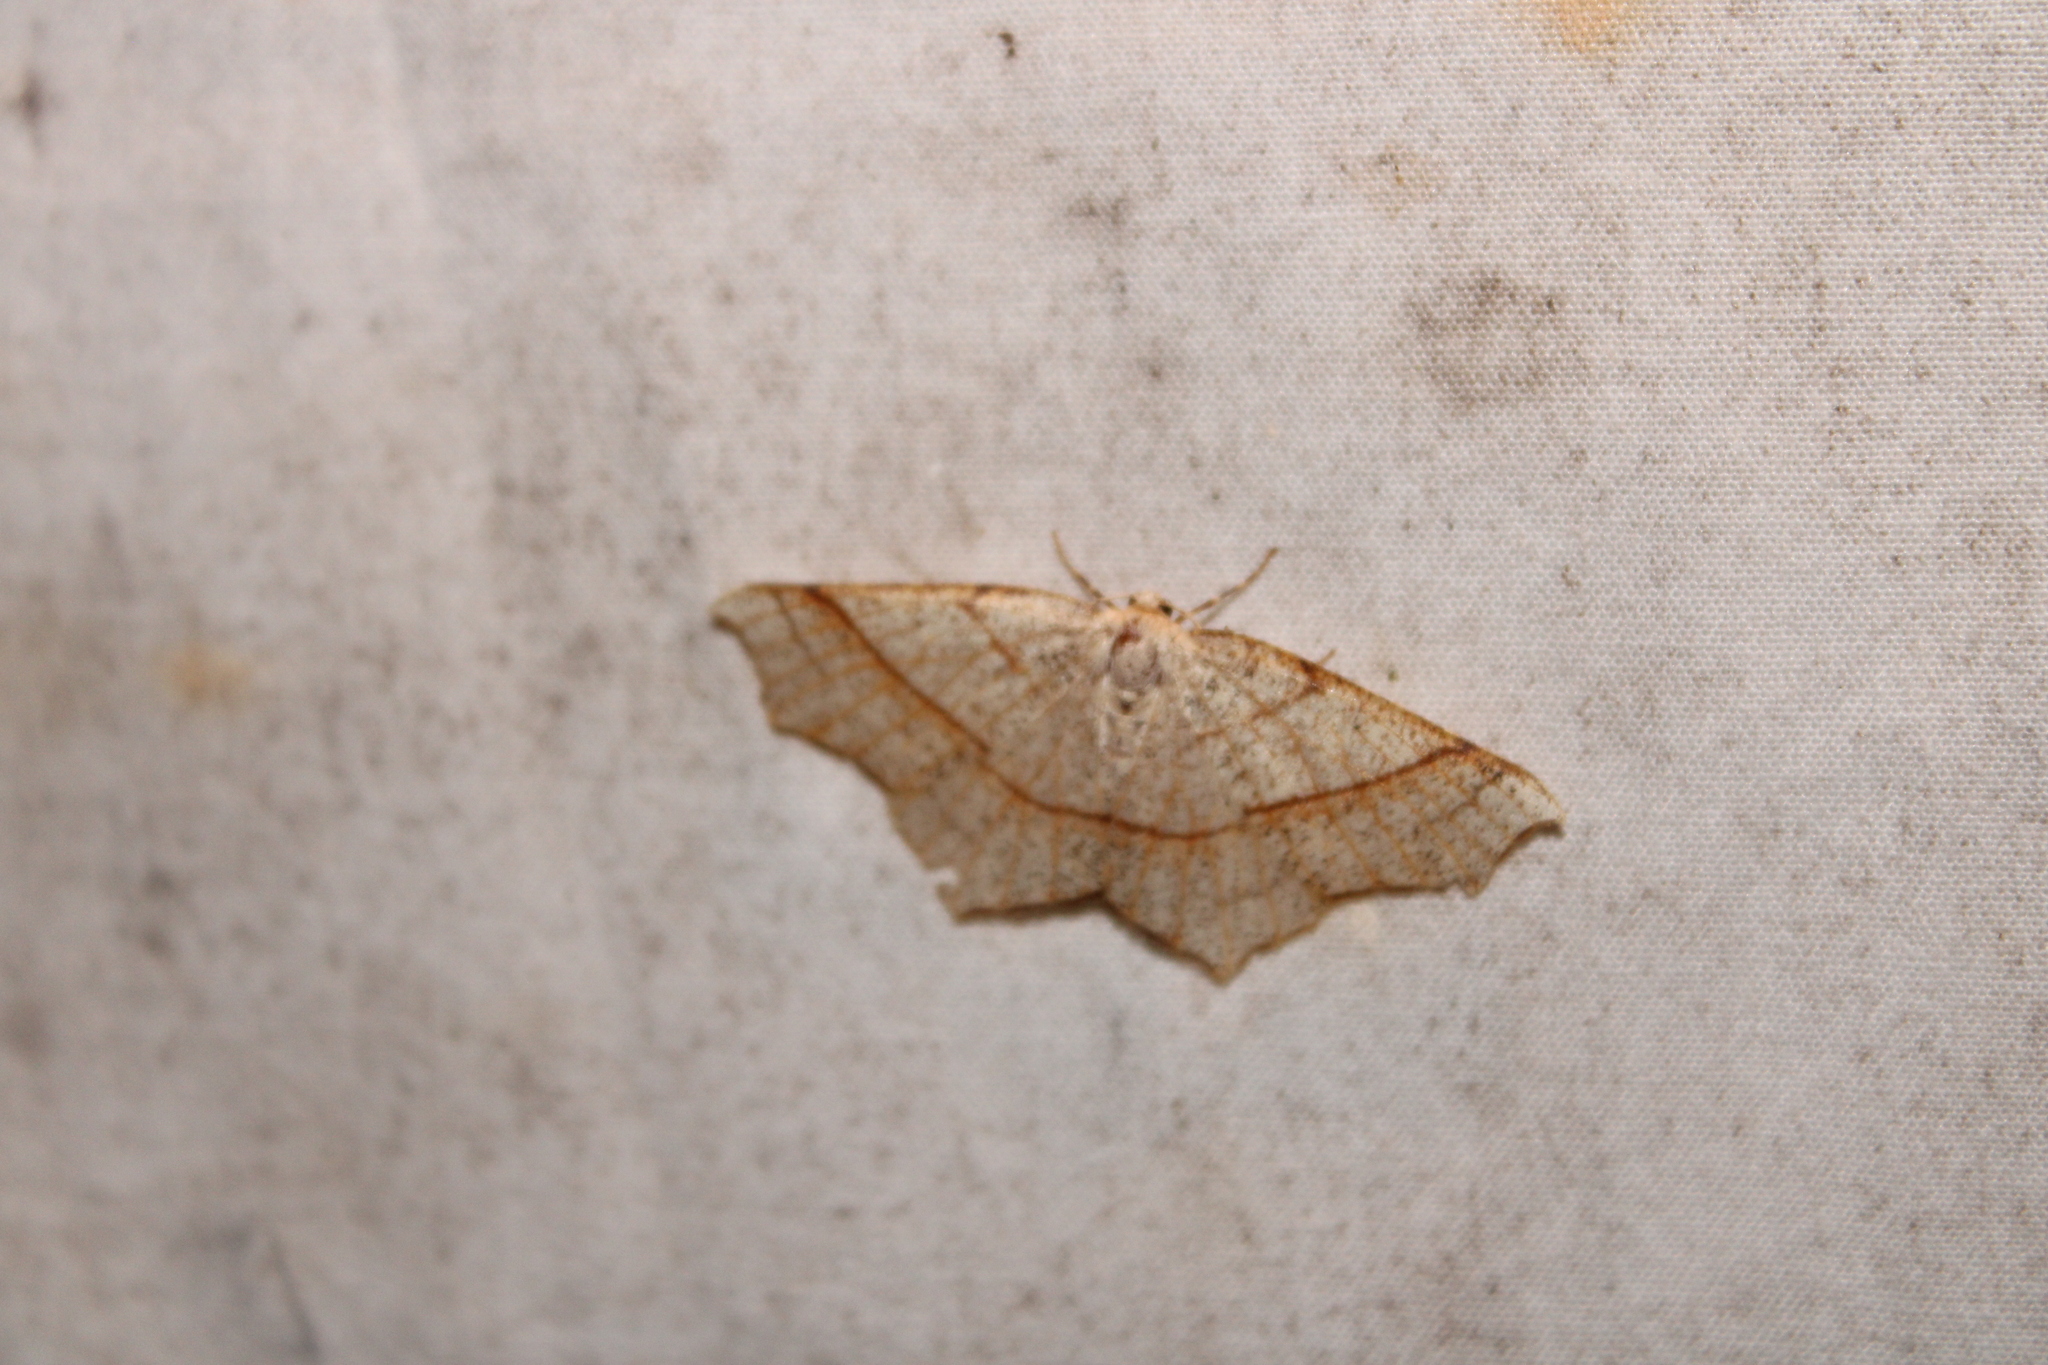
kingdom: Animalia
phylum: Arthropoda
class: Insecta
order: Lepidoptera
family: Geometridae
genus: Besma
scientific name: Besma quercivoraria
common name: Oak besma
